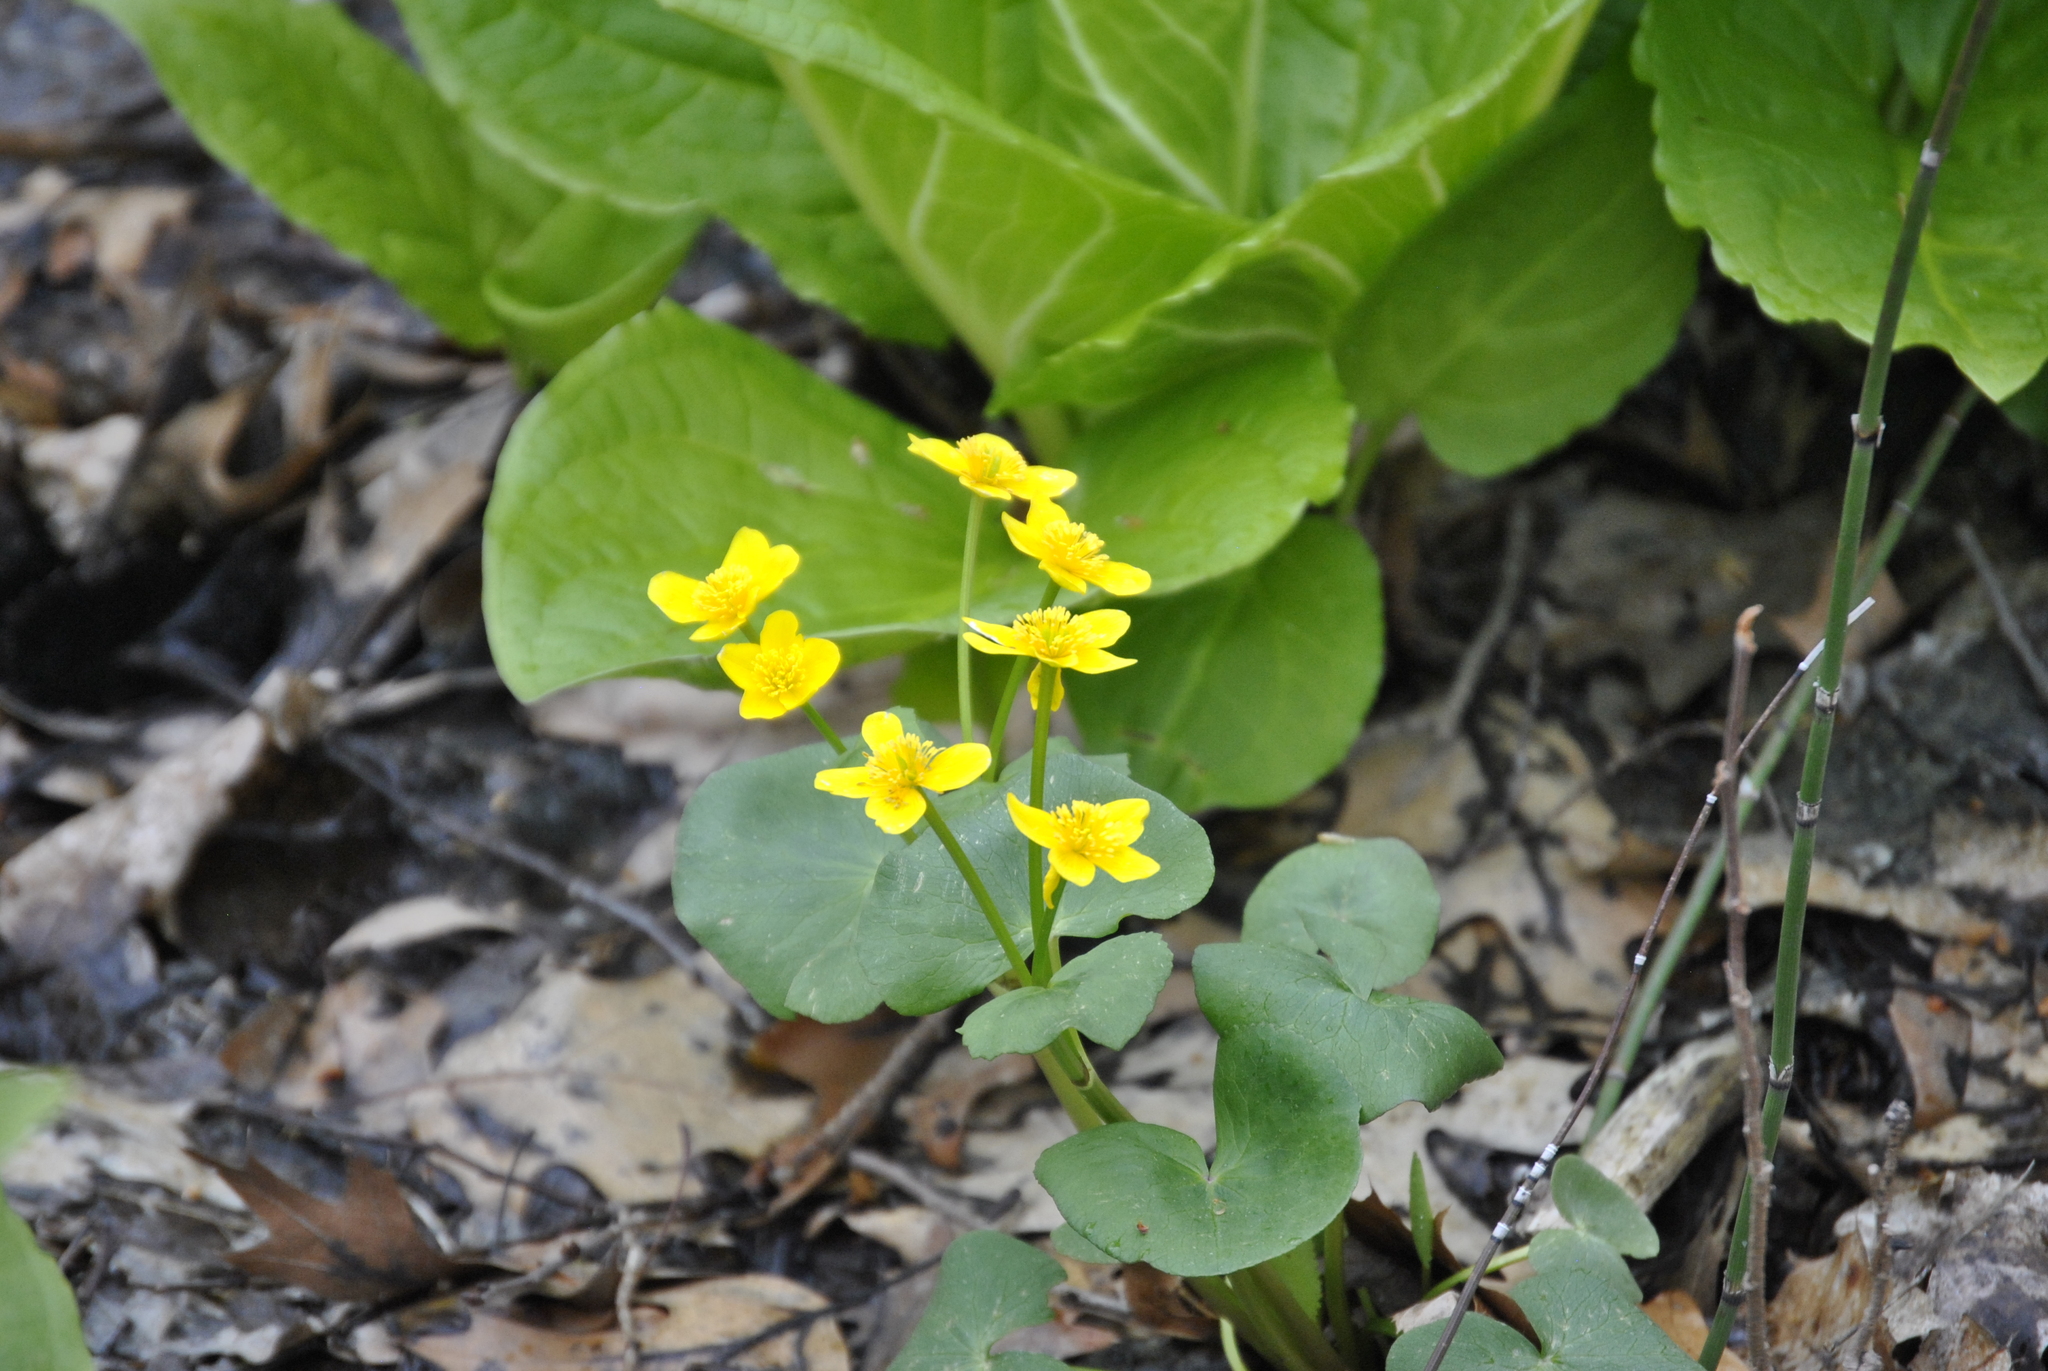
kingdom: Plantae
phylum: Tracheophyta
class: Magnoliopsida
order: Ranunculales
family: Ranunculaceae
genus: Caltha
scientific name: Caltha palustris
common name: Marsh marigold
